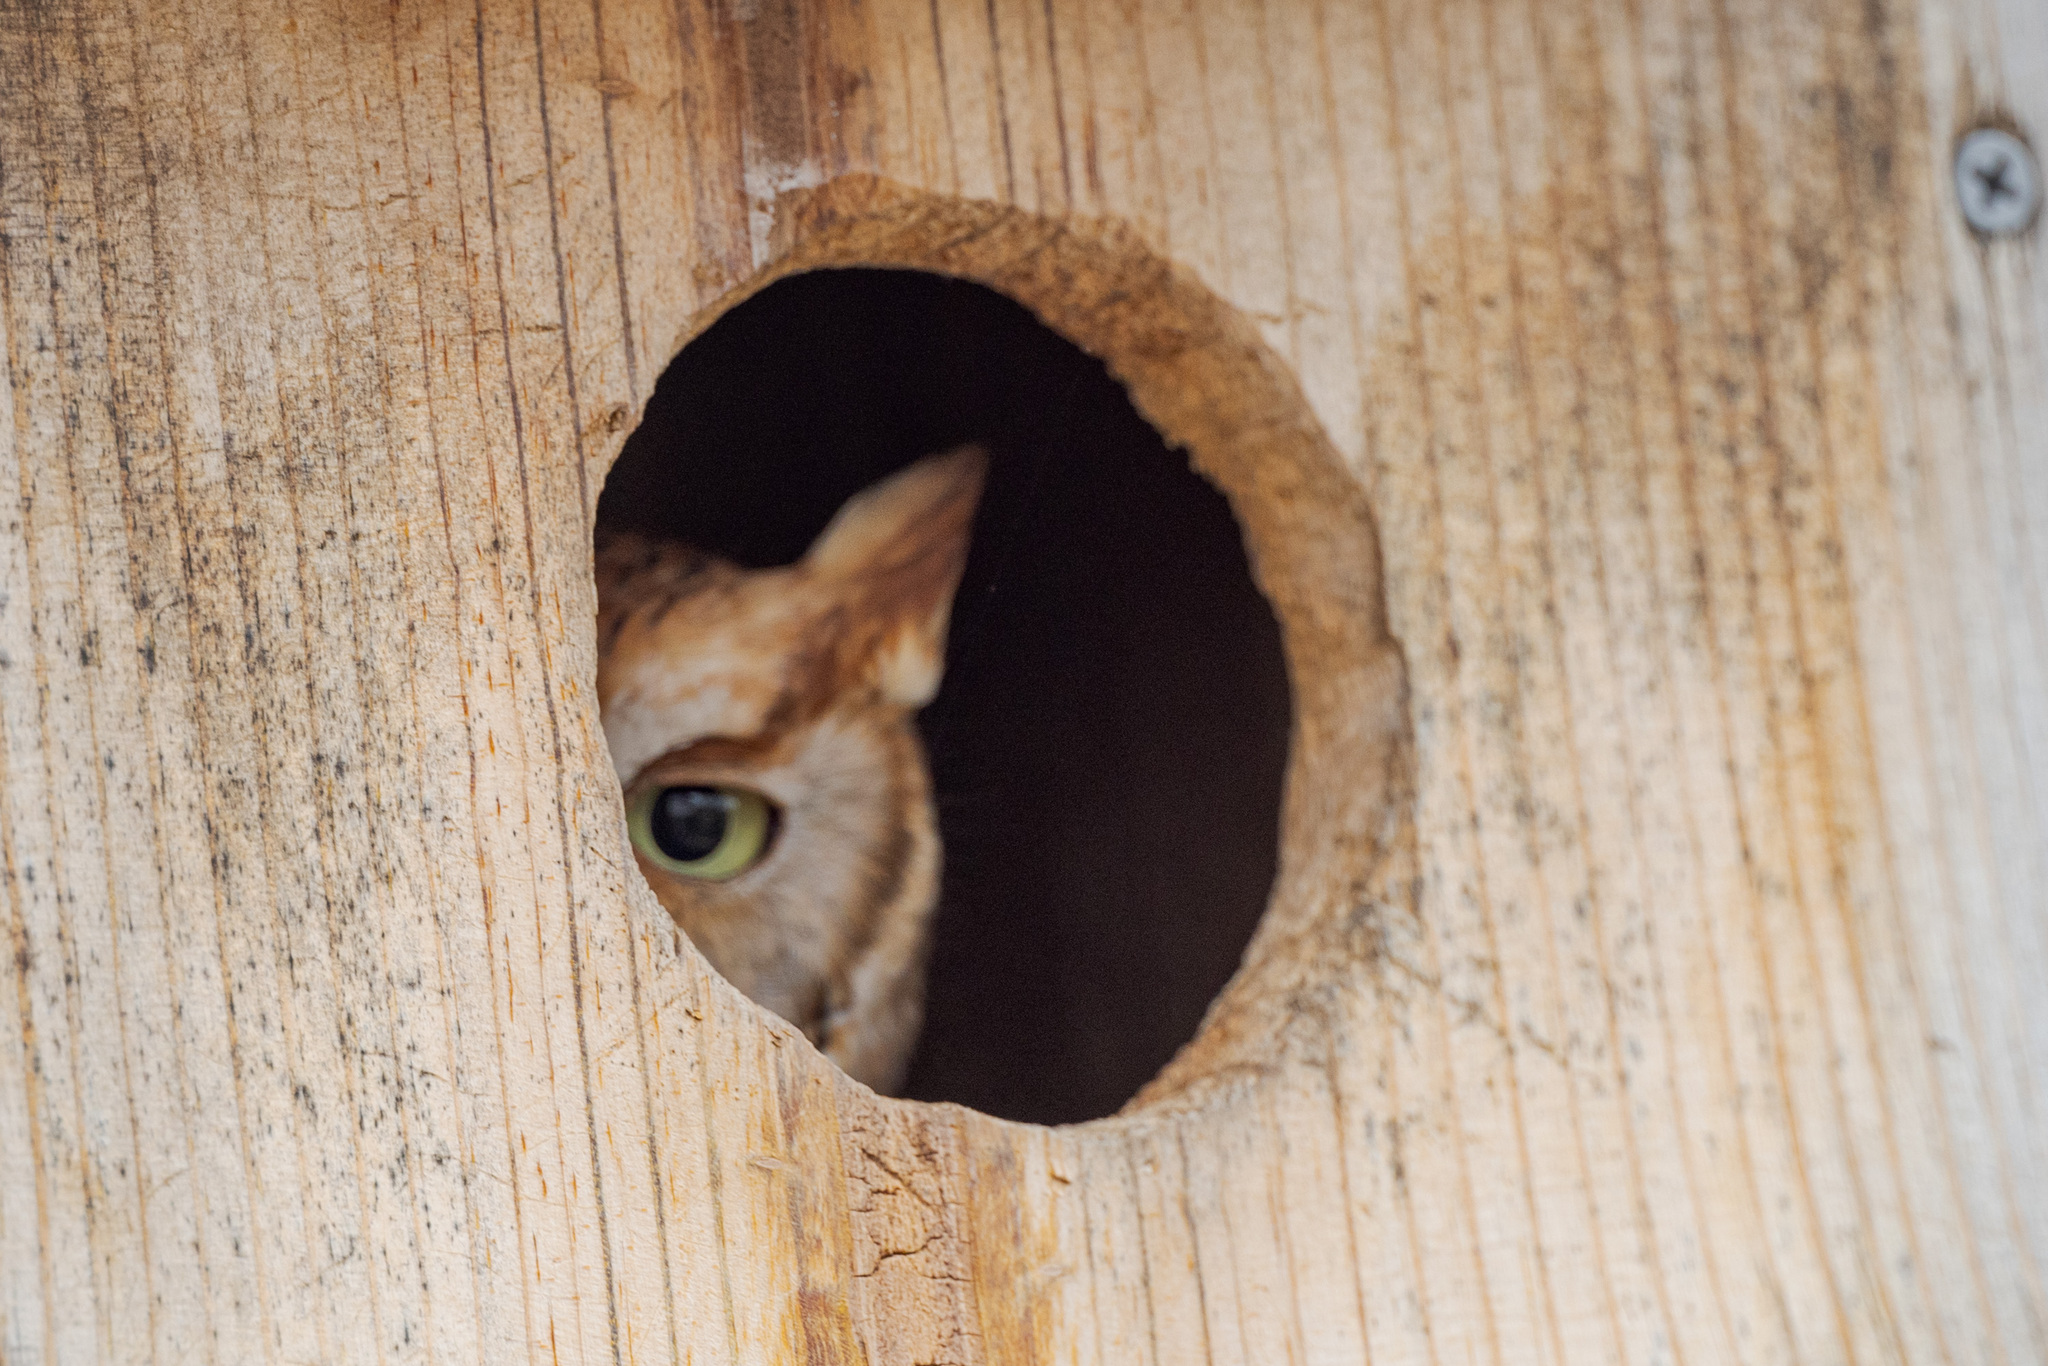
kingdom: Animalia
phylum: Chordata
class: Aves
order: Strigiformes
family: Strigidae
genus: Megascops
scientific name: Megascops asio
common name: Eastern screech-owl
